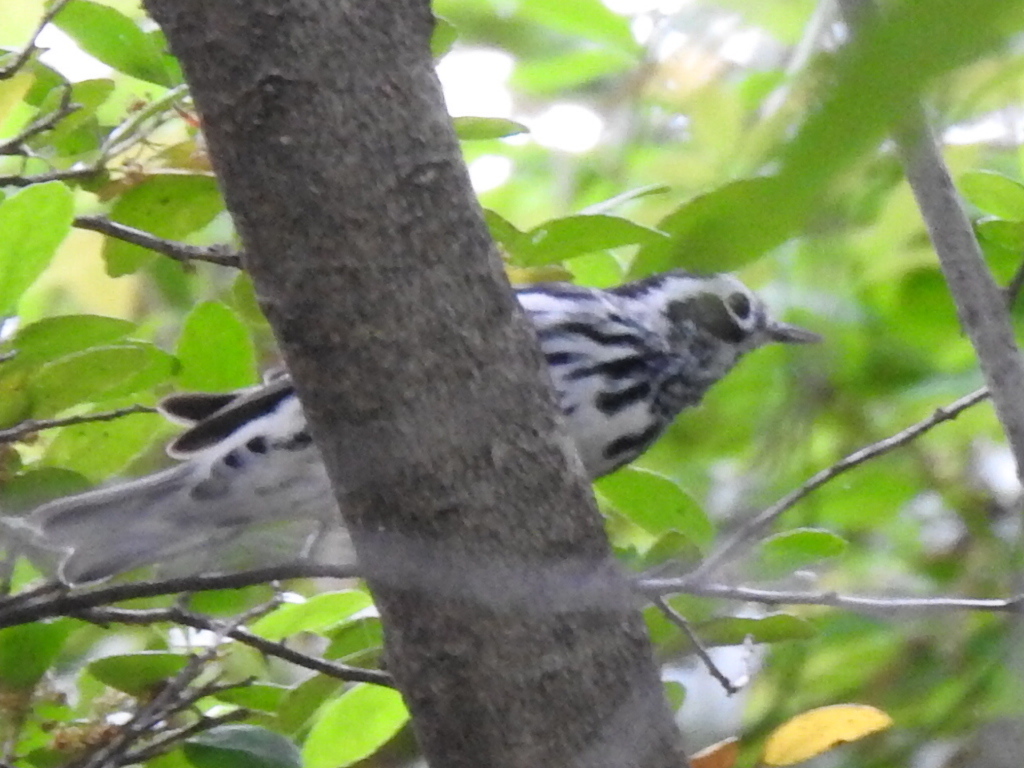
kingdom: Animalia
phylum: Chordata
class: Aves
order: Passeriformes
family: Parulidae
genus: Mniotilta
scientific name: Mniotilta varia
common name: Black-and-white warbler
